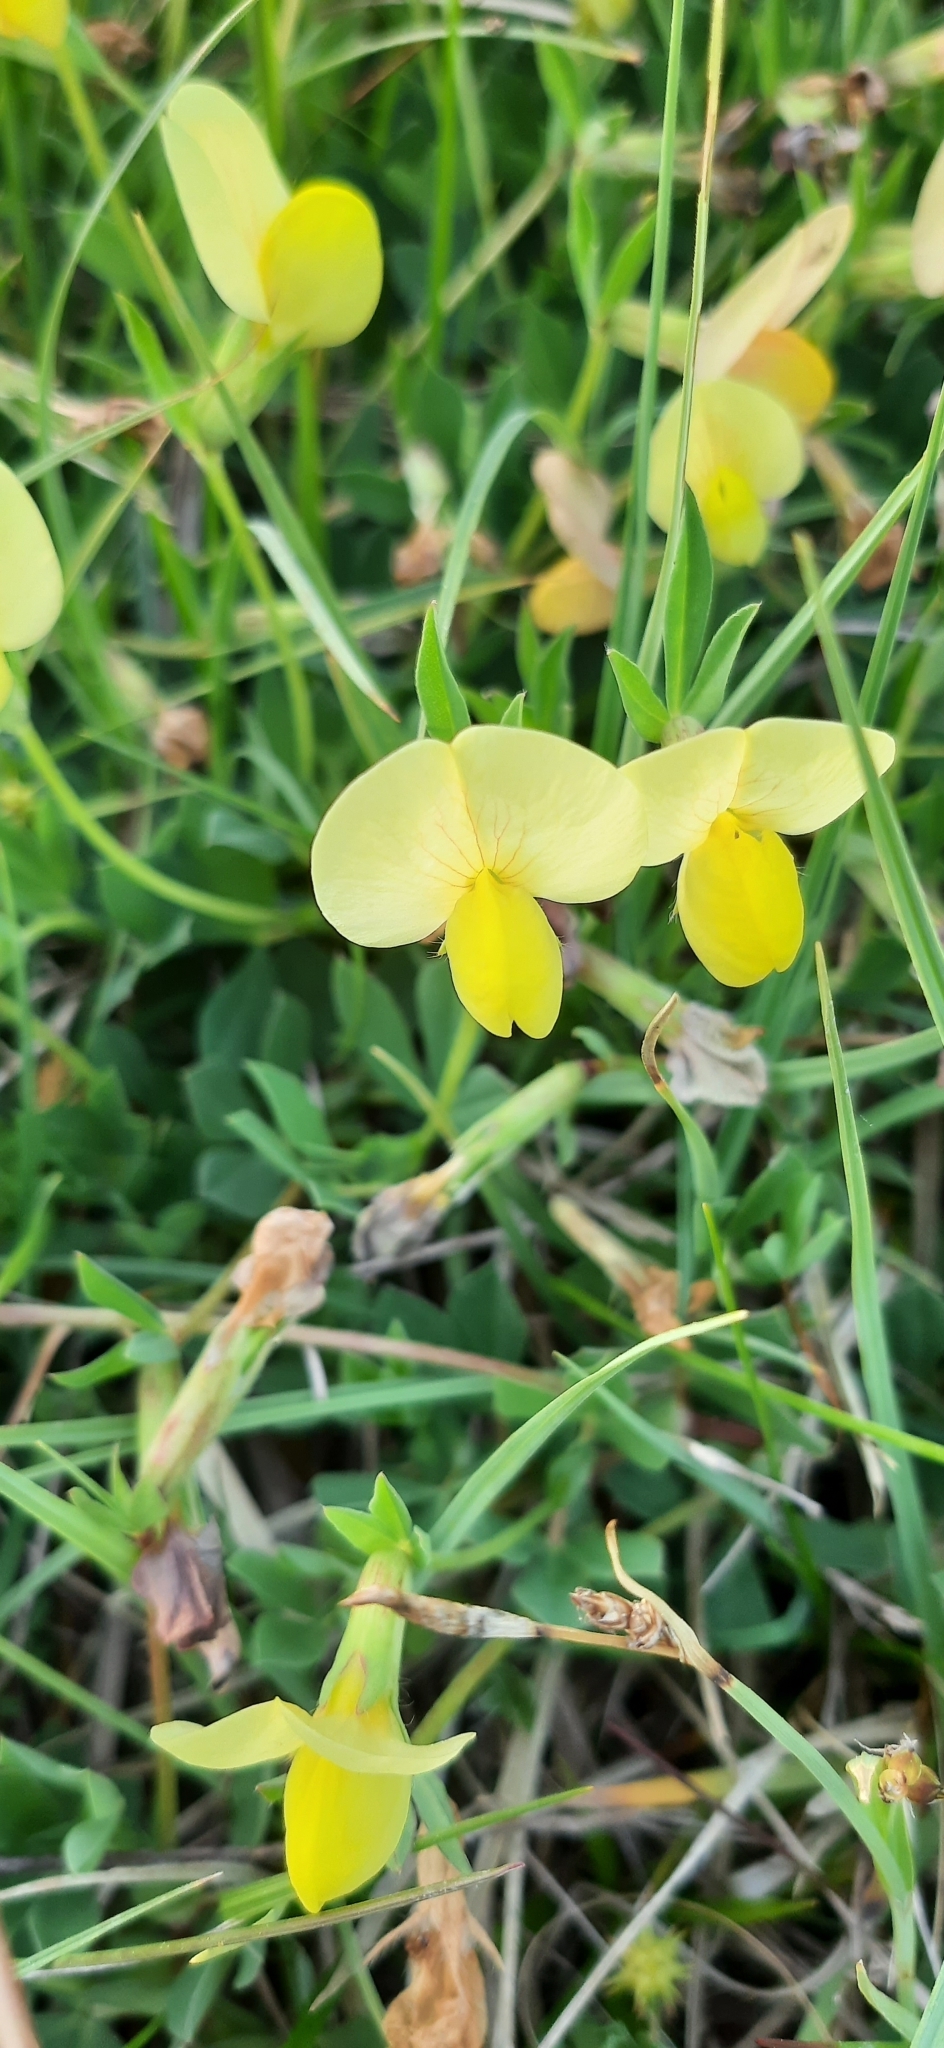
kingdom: Plantae
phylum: Tracheophyta
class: Magnoliopsida
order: Fabales
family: Fabaceae
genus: Lotus
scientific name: Lotus maritimus
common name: Dragon's-teeth
